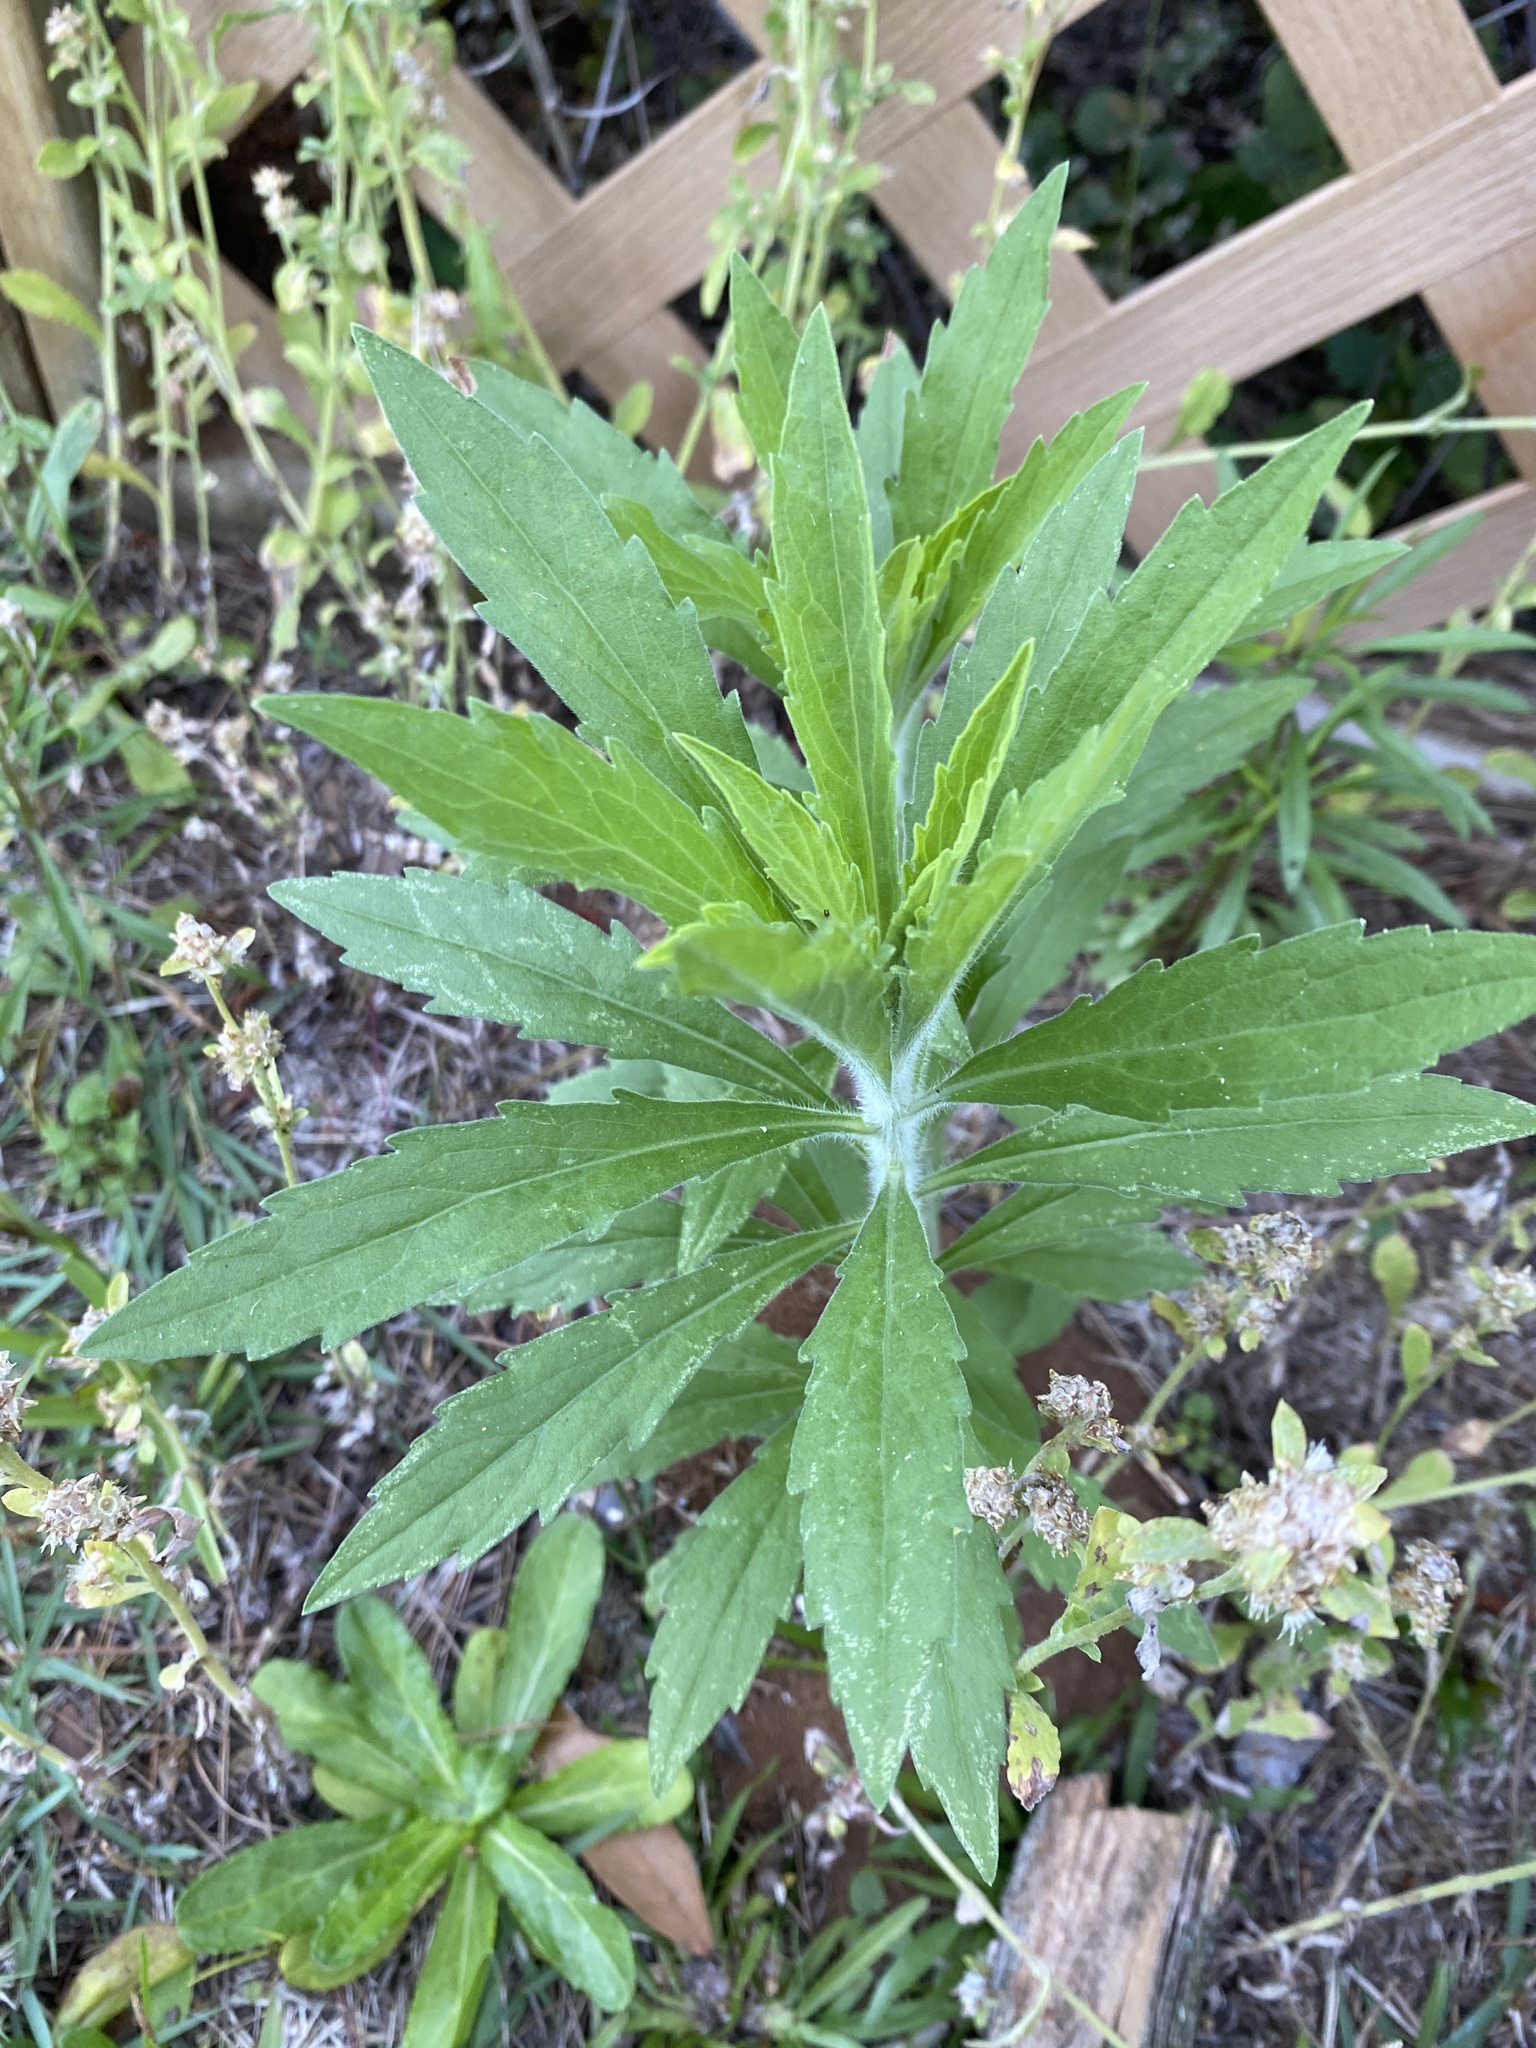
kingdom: Plantae
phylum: Tracheophyta
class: Magnoliopsida
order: Asterales
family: Asteraceae
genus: Erigeron
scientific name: Erigeron canadensis
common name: Canadian fleabane
